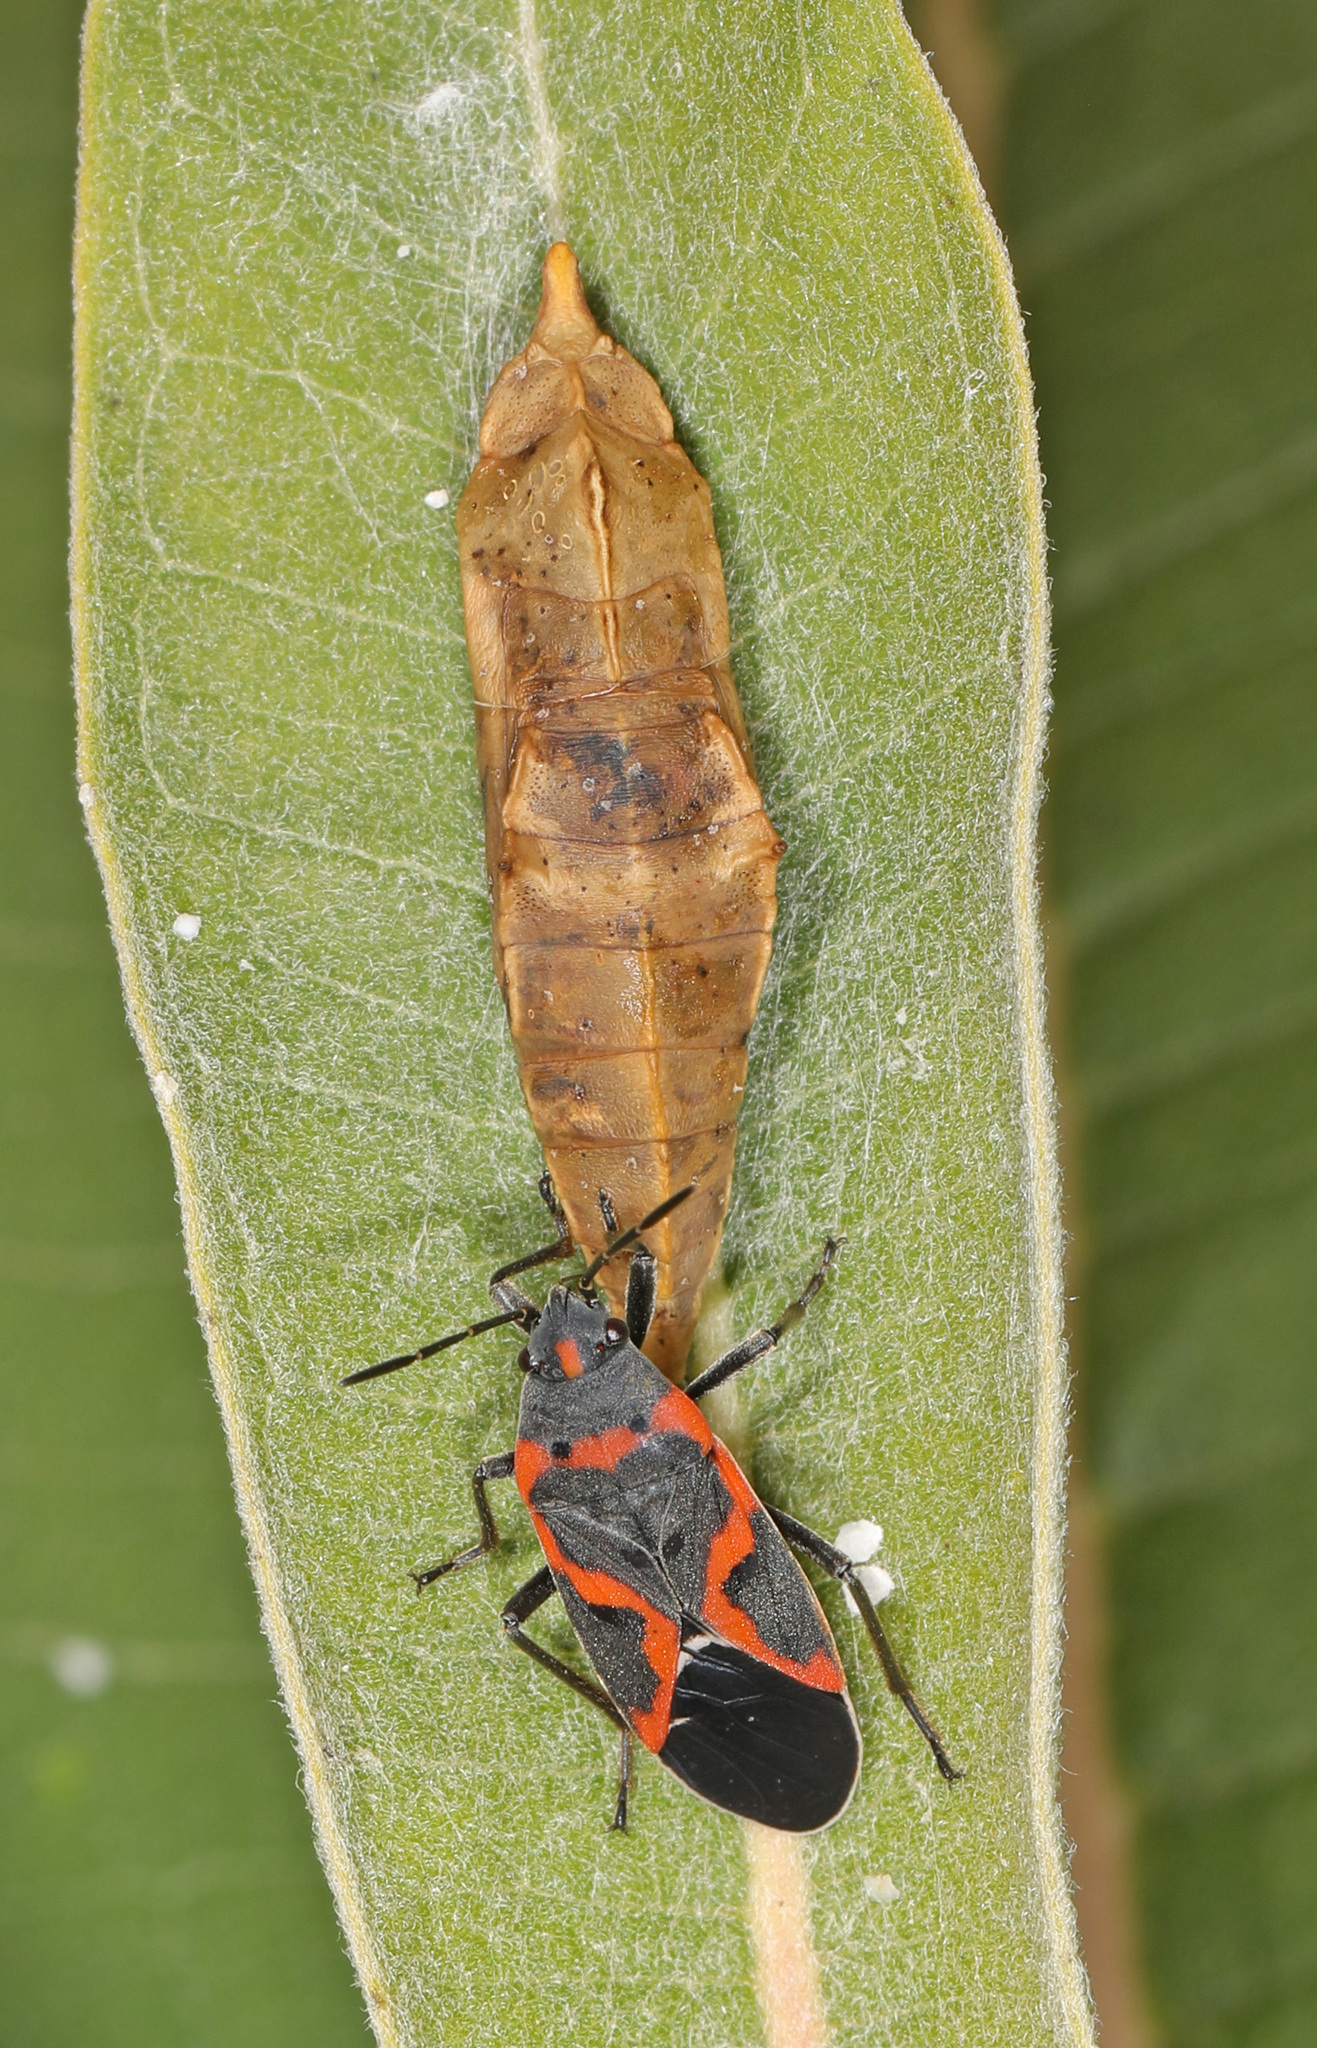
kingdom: Animalia
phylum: Arthropoda
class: Insecta
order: Hemiptera
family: Lygaeidae
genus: Lygaeus
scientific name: Lygaeus kalmii
